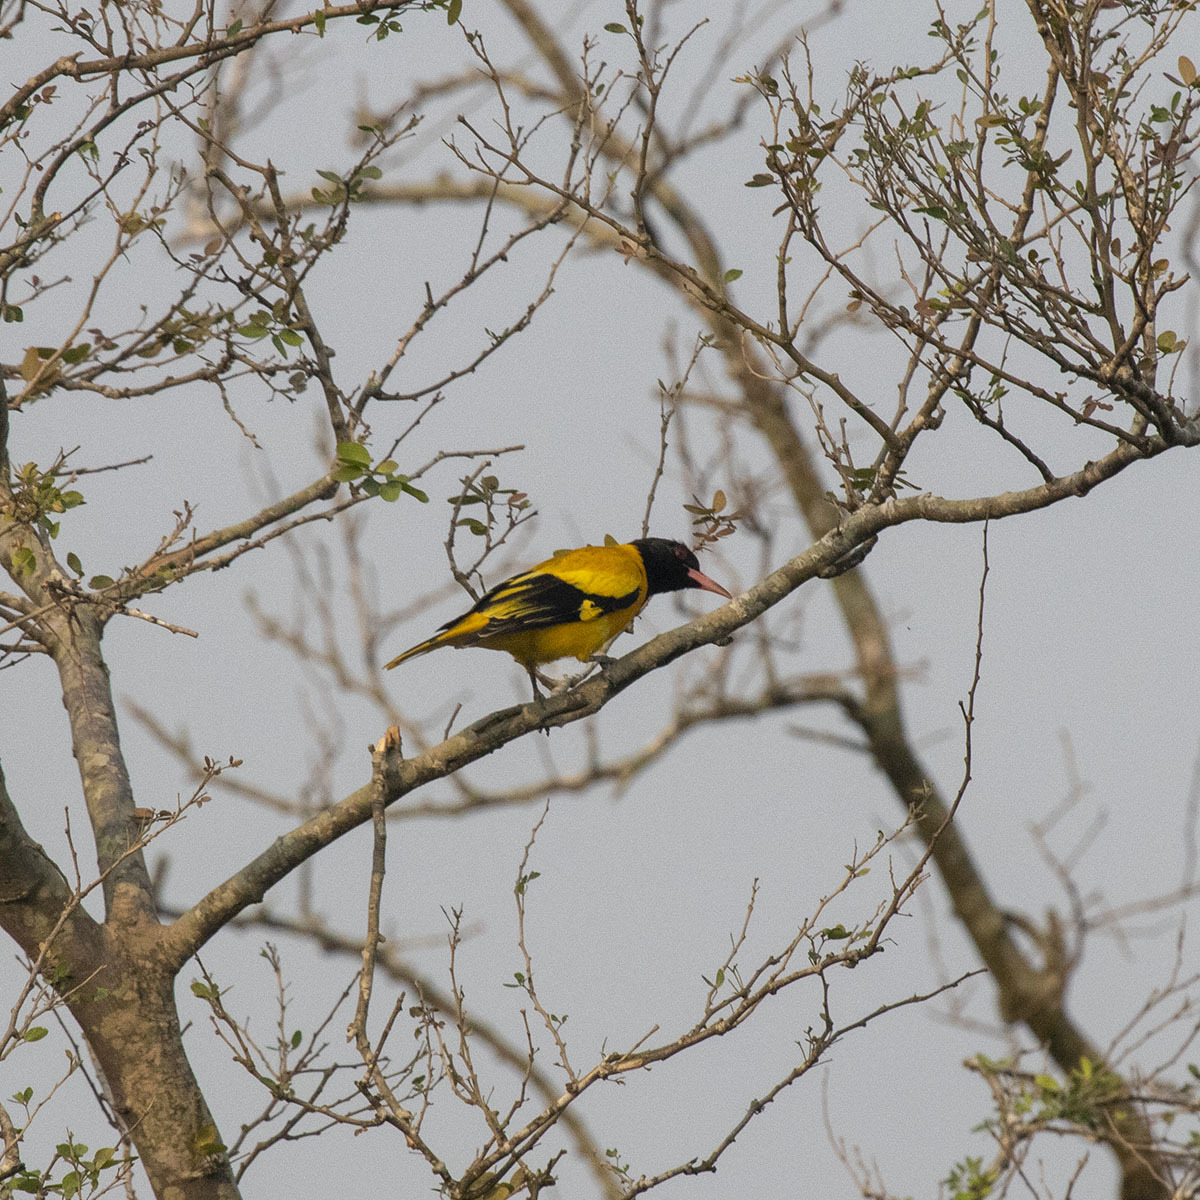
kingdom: Animalia
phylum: Chordata
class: Aves
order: Passeriformes
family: Oriolidae
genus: Oriolus
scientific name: Oriolus xanthornus
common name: Black-hooded oriole
